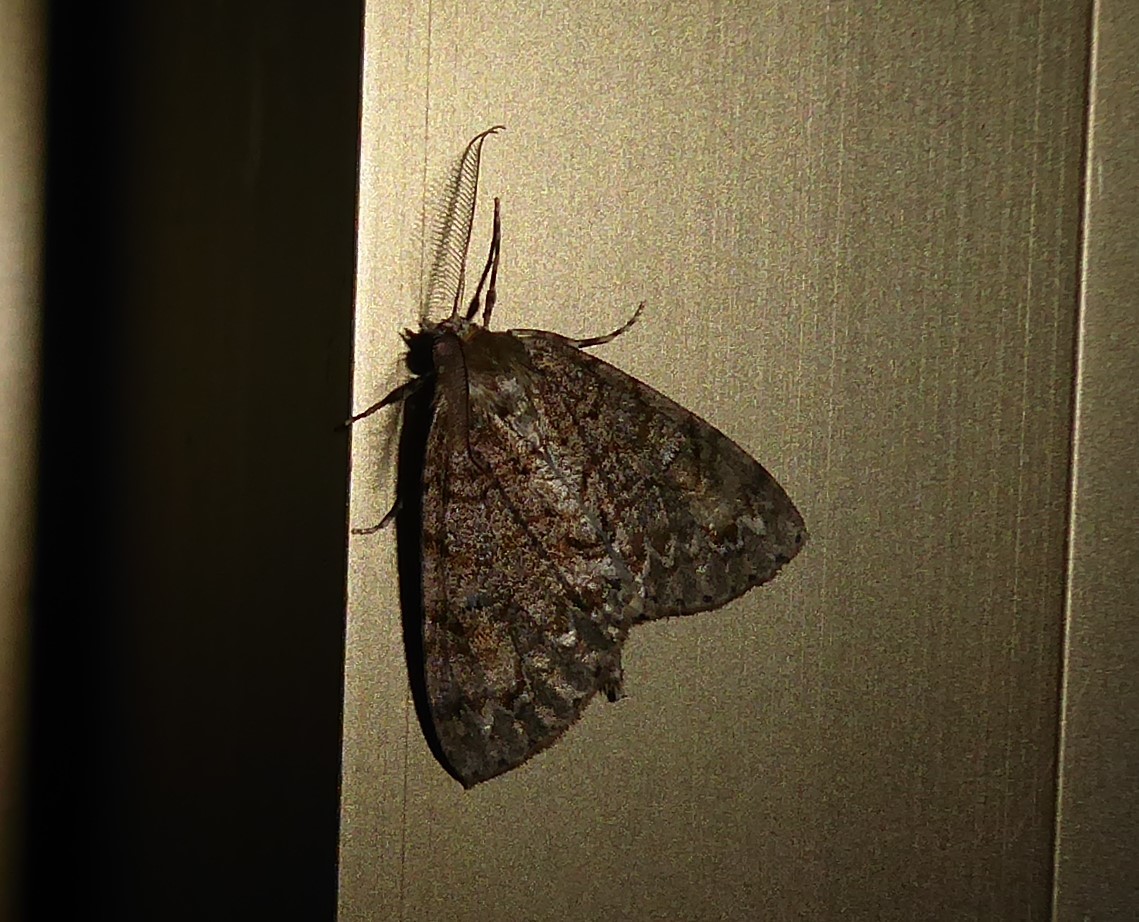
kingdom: Animalia
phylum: Arthropoda
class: Insecta
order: Lepidoptera
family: Geometridae
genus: Pseudocoremia
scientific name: Pseudocoremia suavis
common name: Common forest looper
